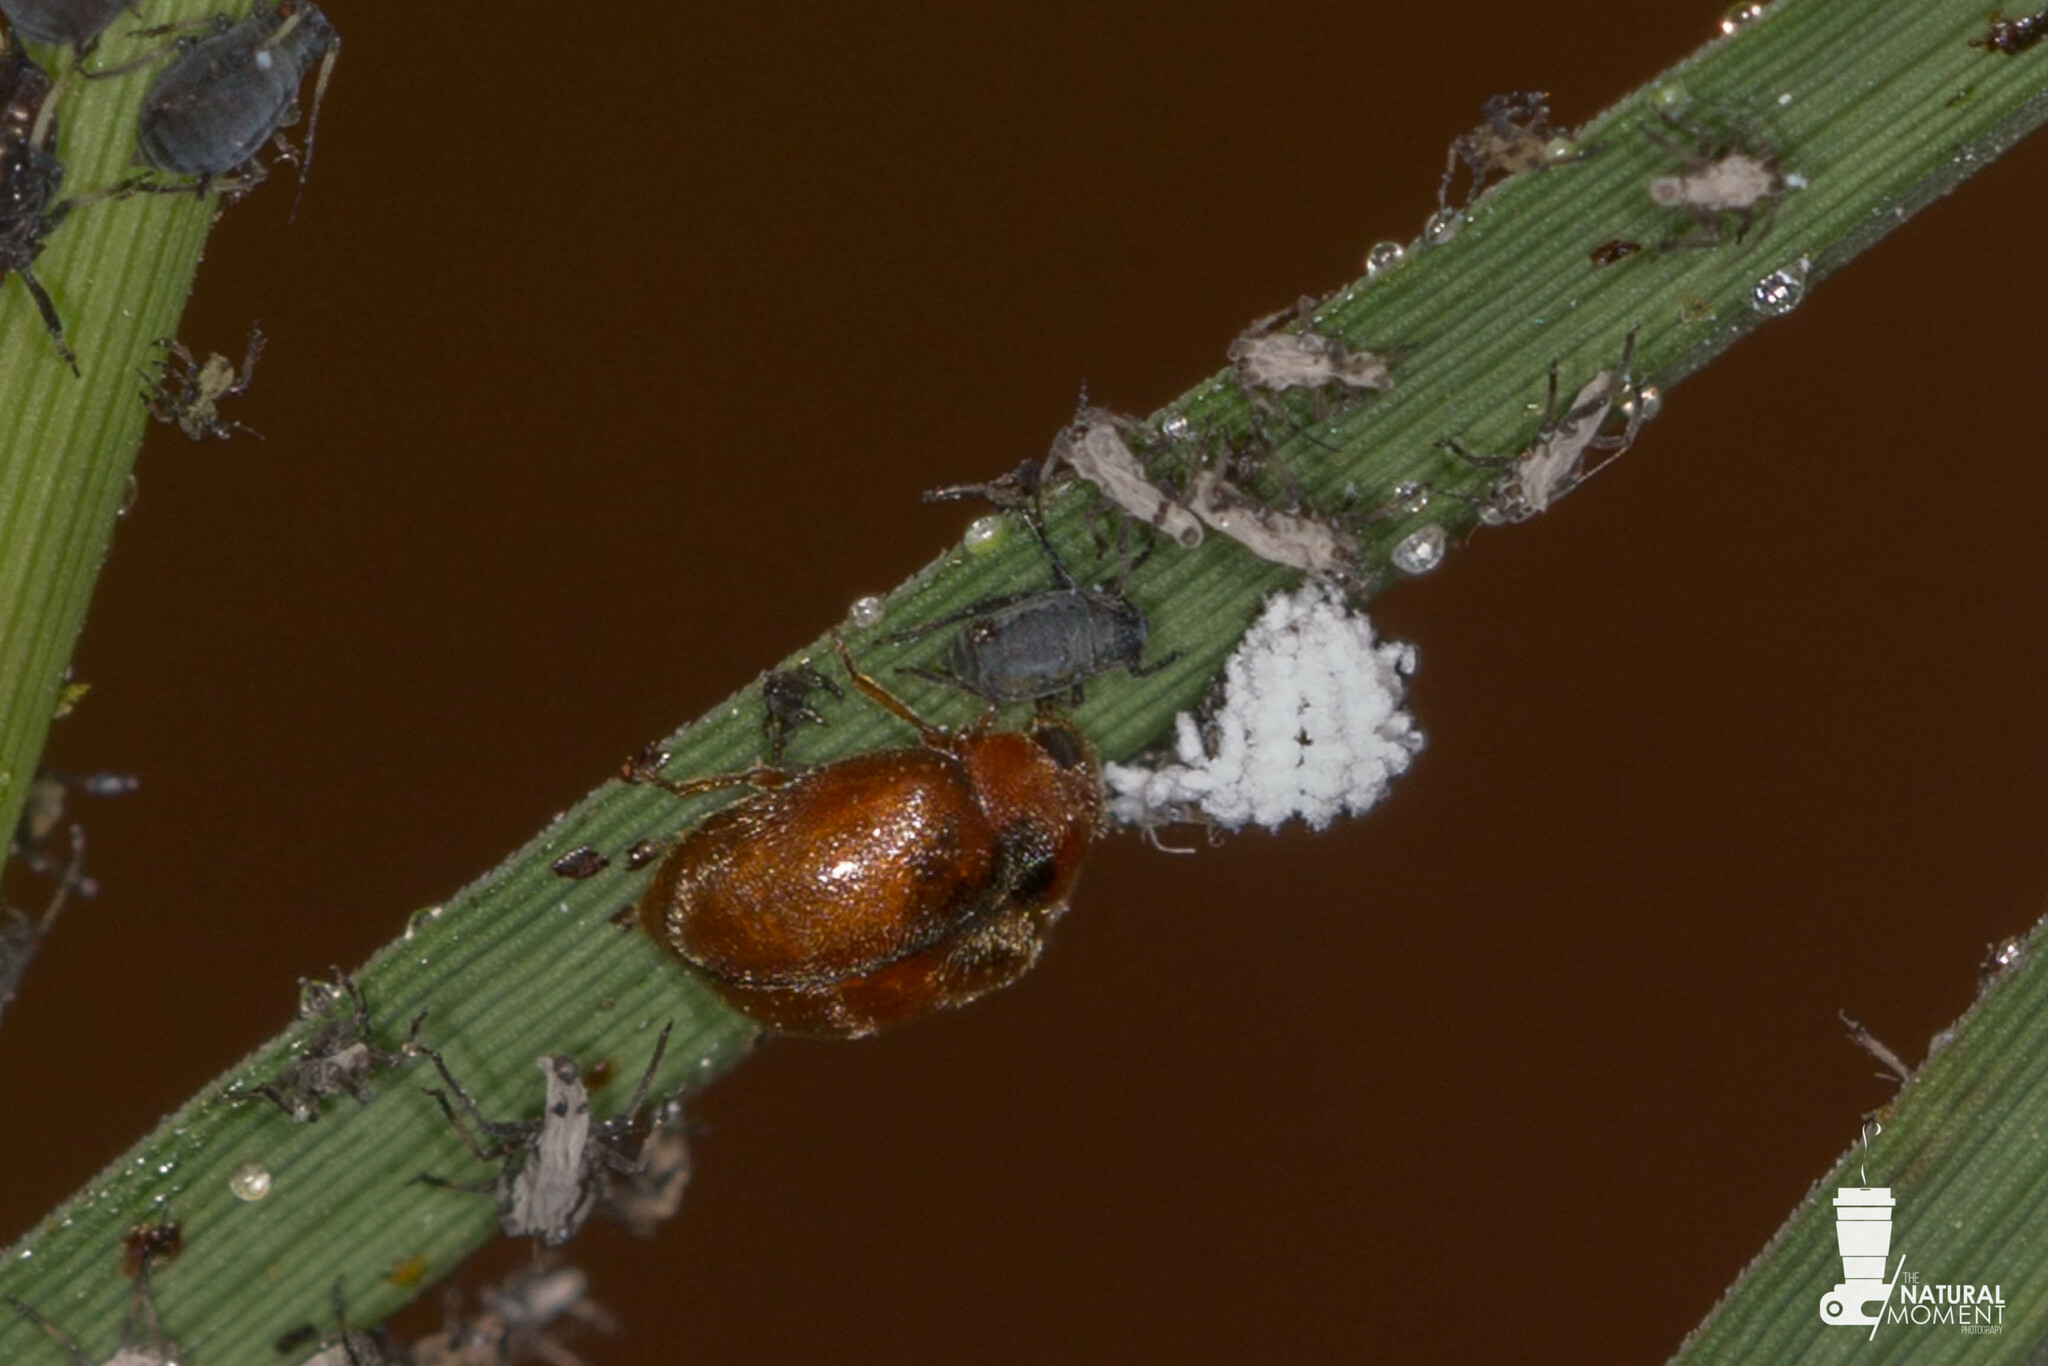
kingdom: Animalia
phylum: Arthropoda
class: Insecta
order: Coleoptera
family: Coccinellidae
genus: Scymnus
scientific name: Scymnus
